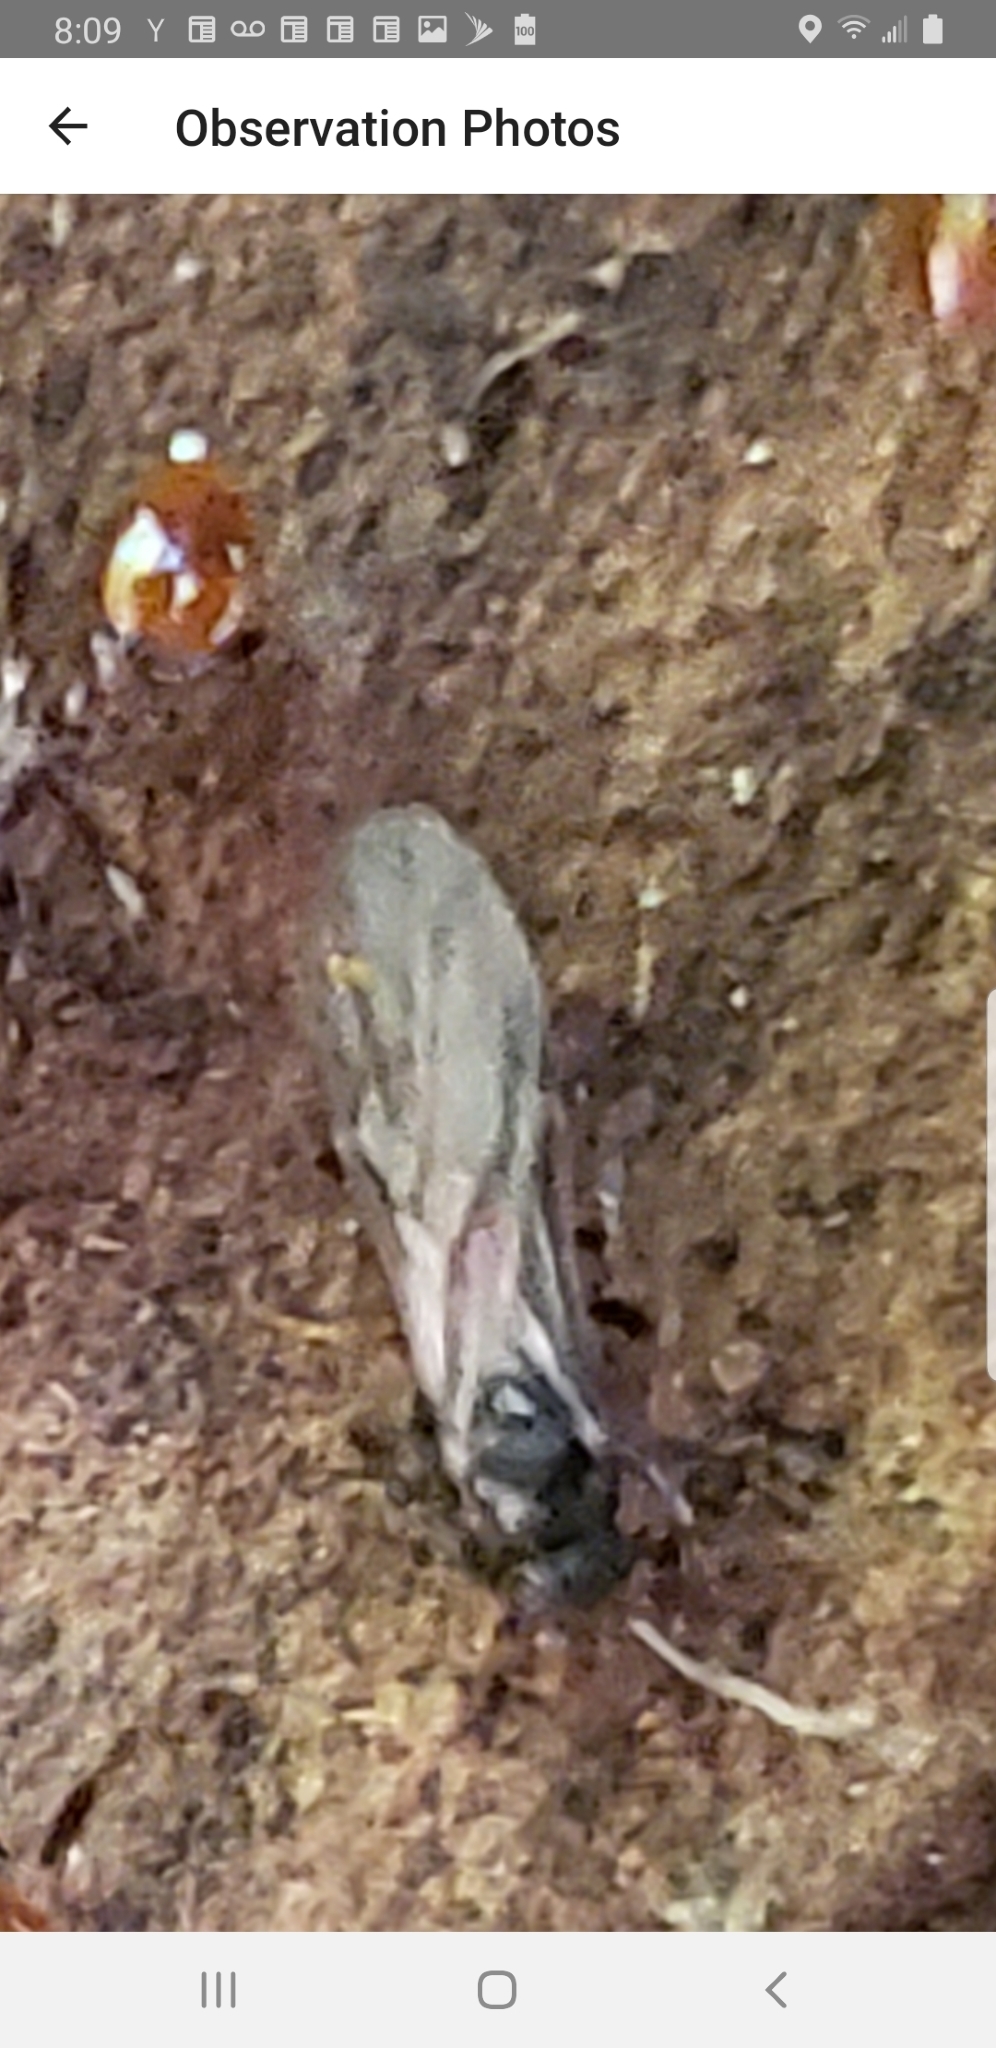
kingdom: Animalia
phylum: Arthropoda
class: Insecta
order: Hymenoptera
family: Formicidae
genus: Aphaenogaster
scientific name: Aphaenogaster tennesseensis
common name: Tennessee thread-waisted ant
